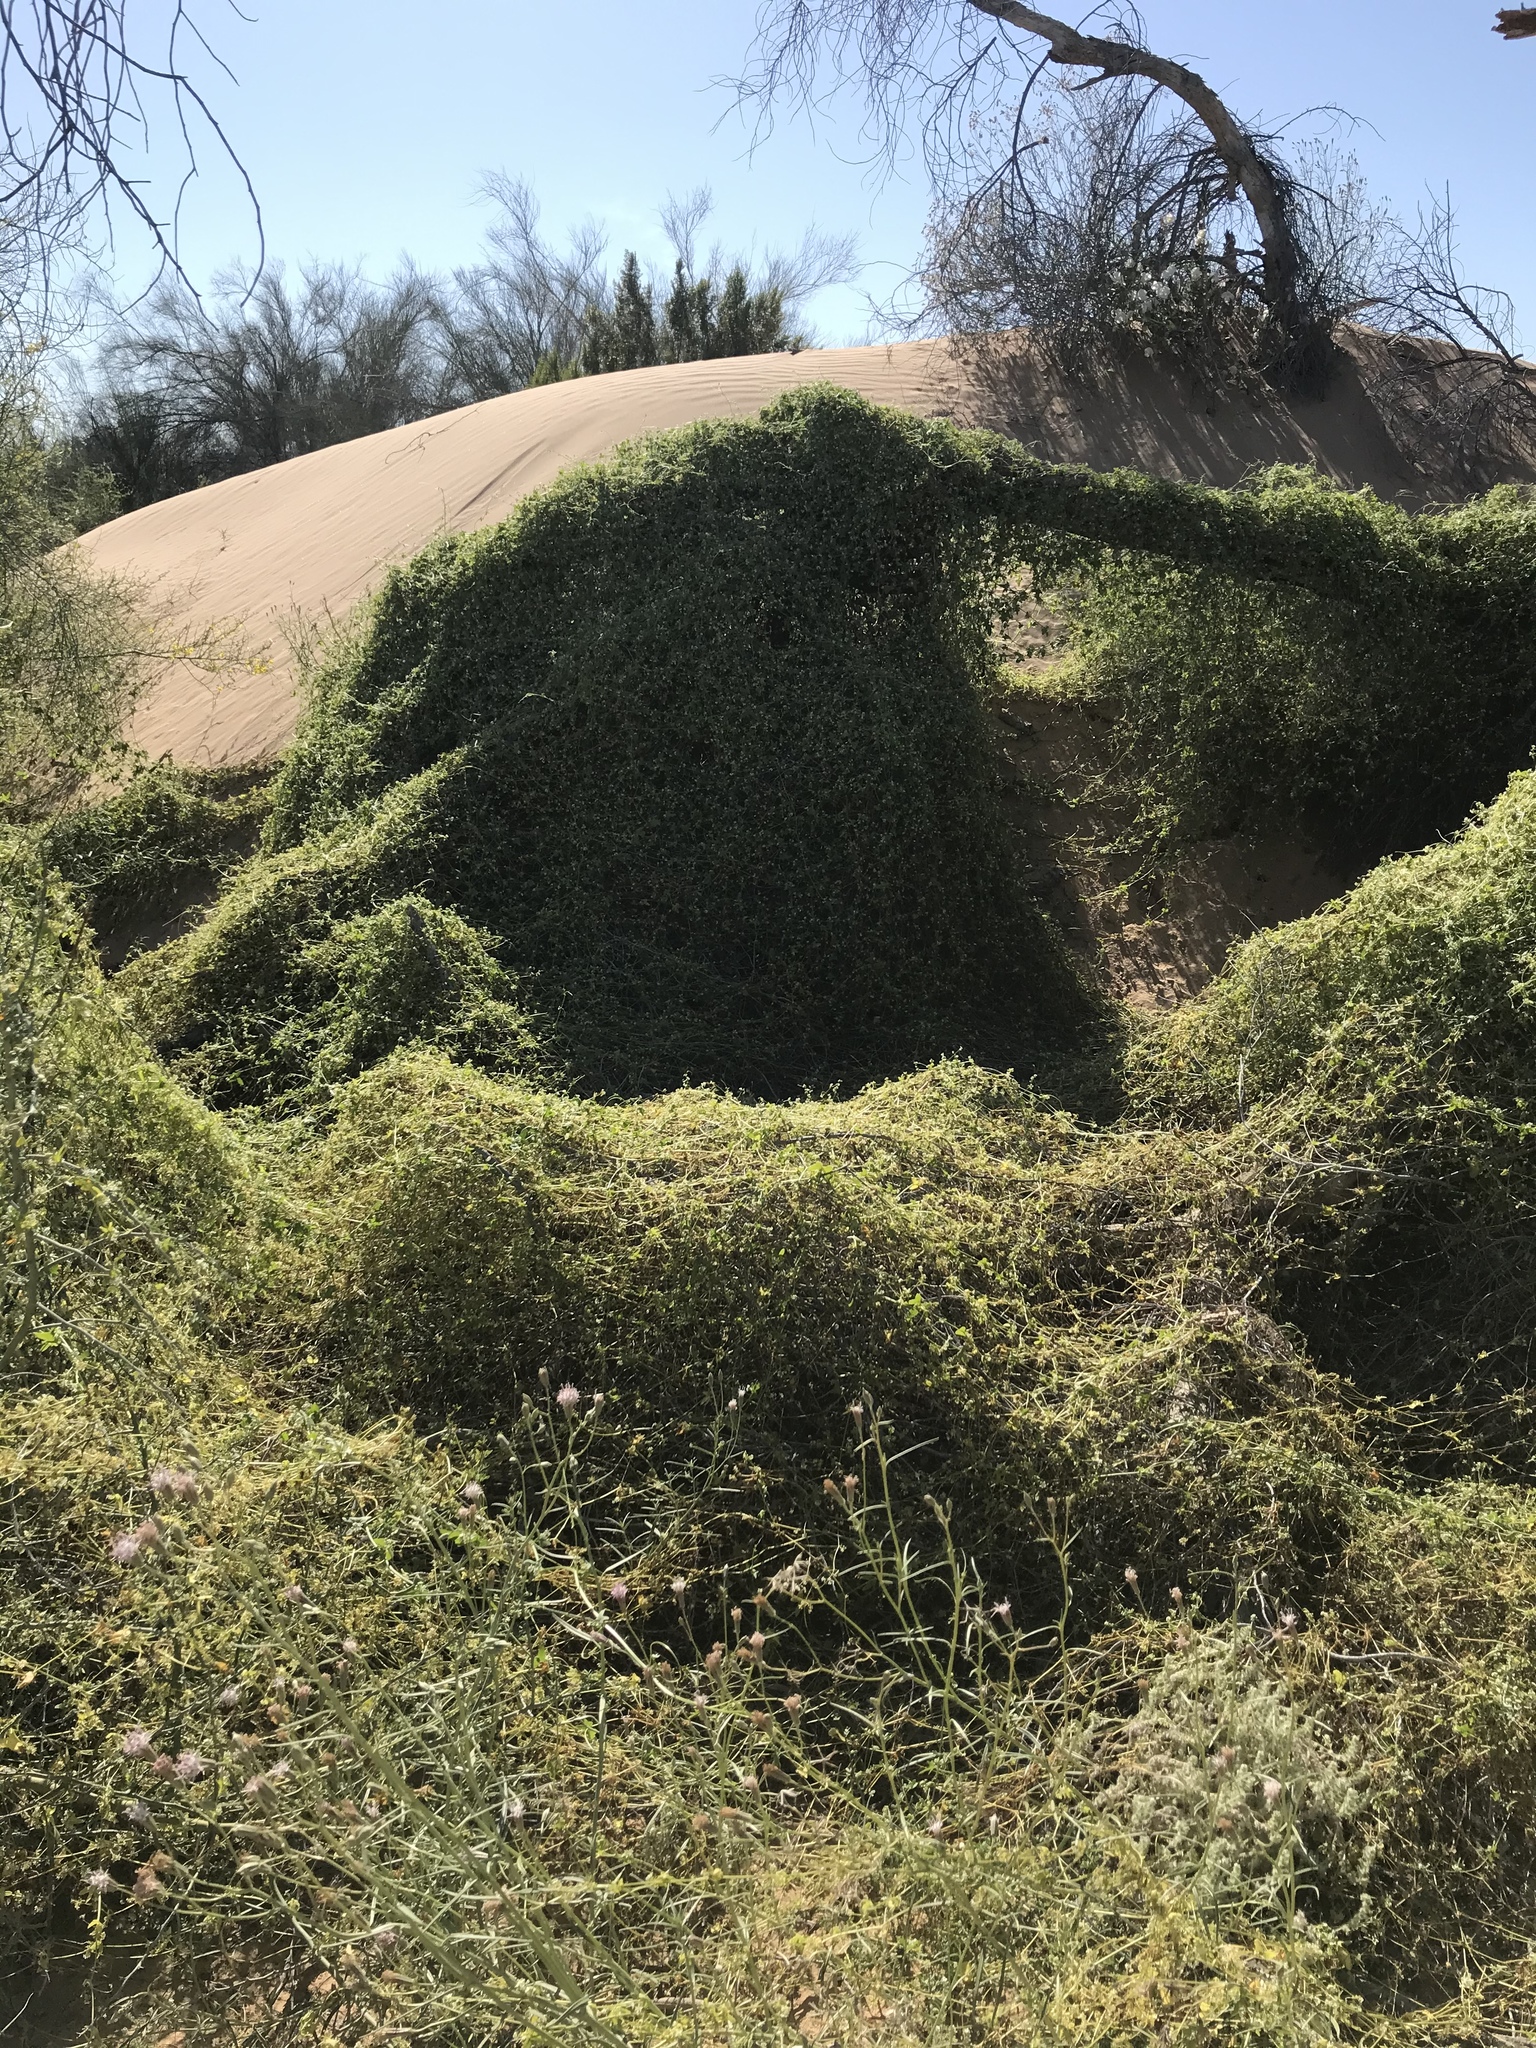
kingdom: Plantae
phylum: Tracheophyta
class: Magnoliopsida
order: Cucurbitales
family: Cucurbitaceae
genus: Echinopepon
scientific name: Echinopepon bigelovii
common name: Desert starvine
